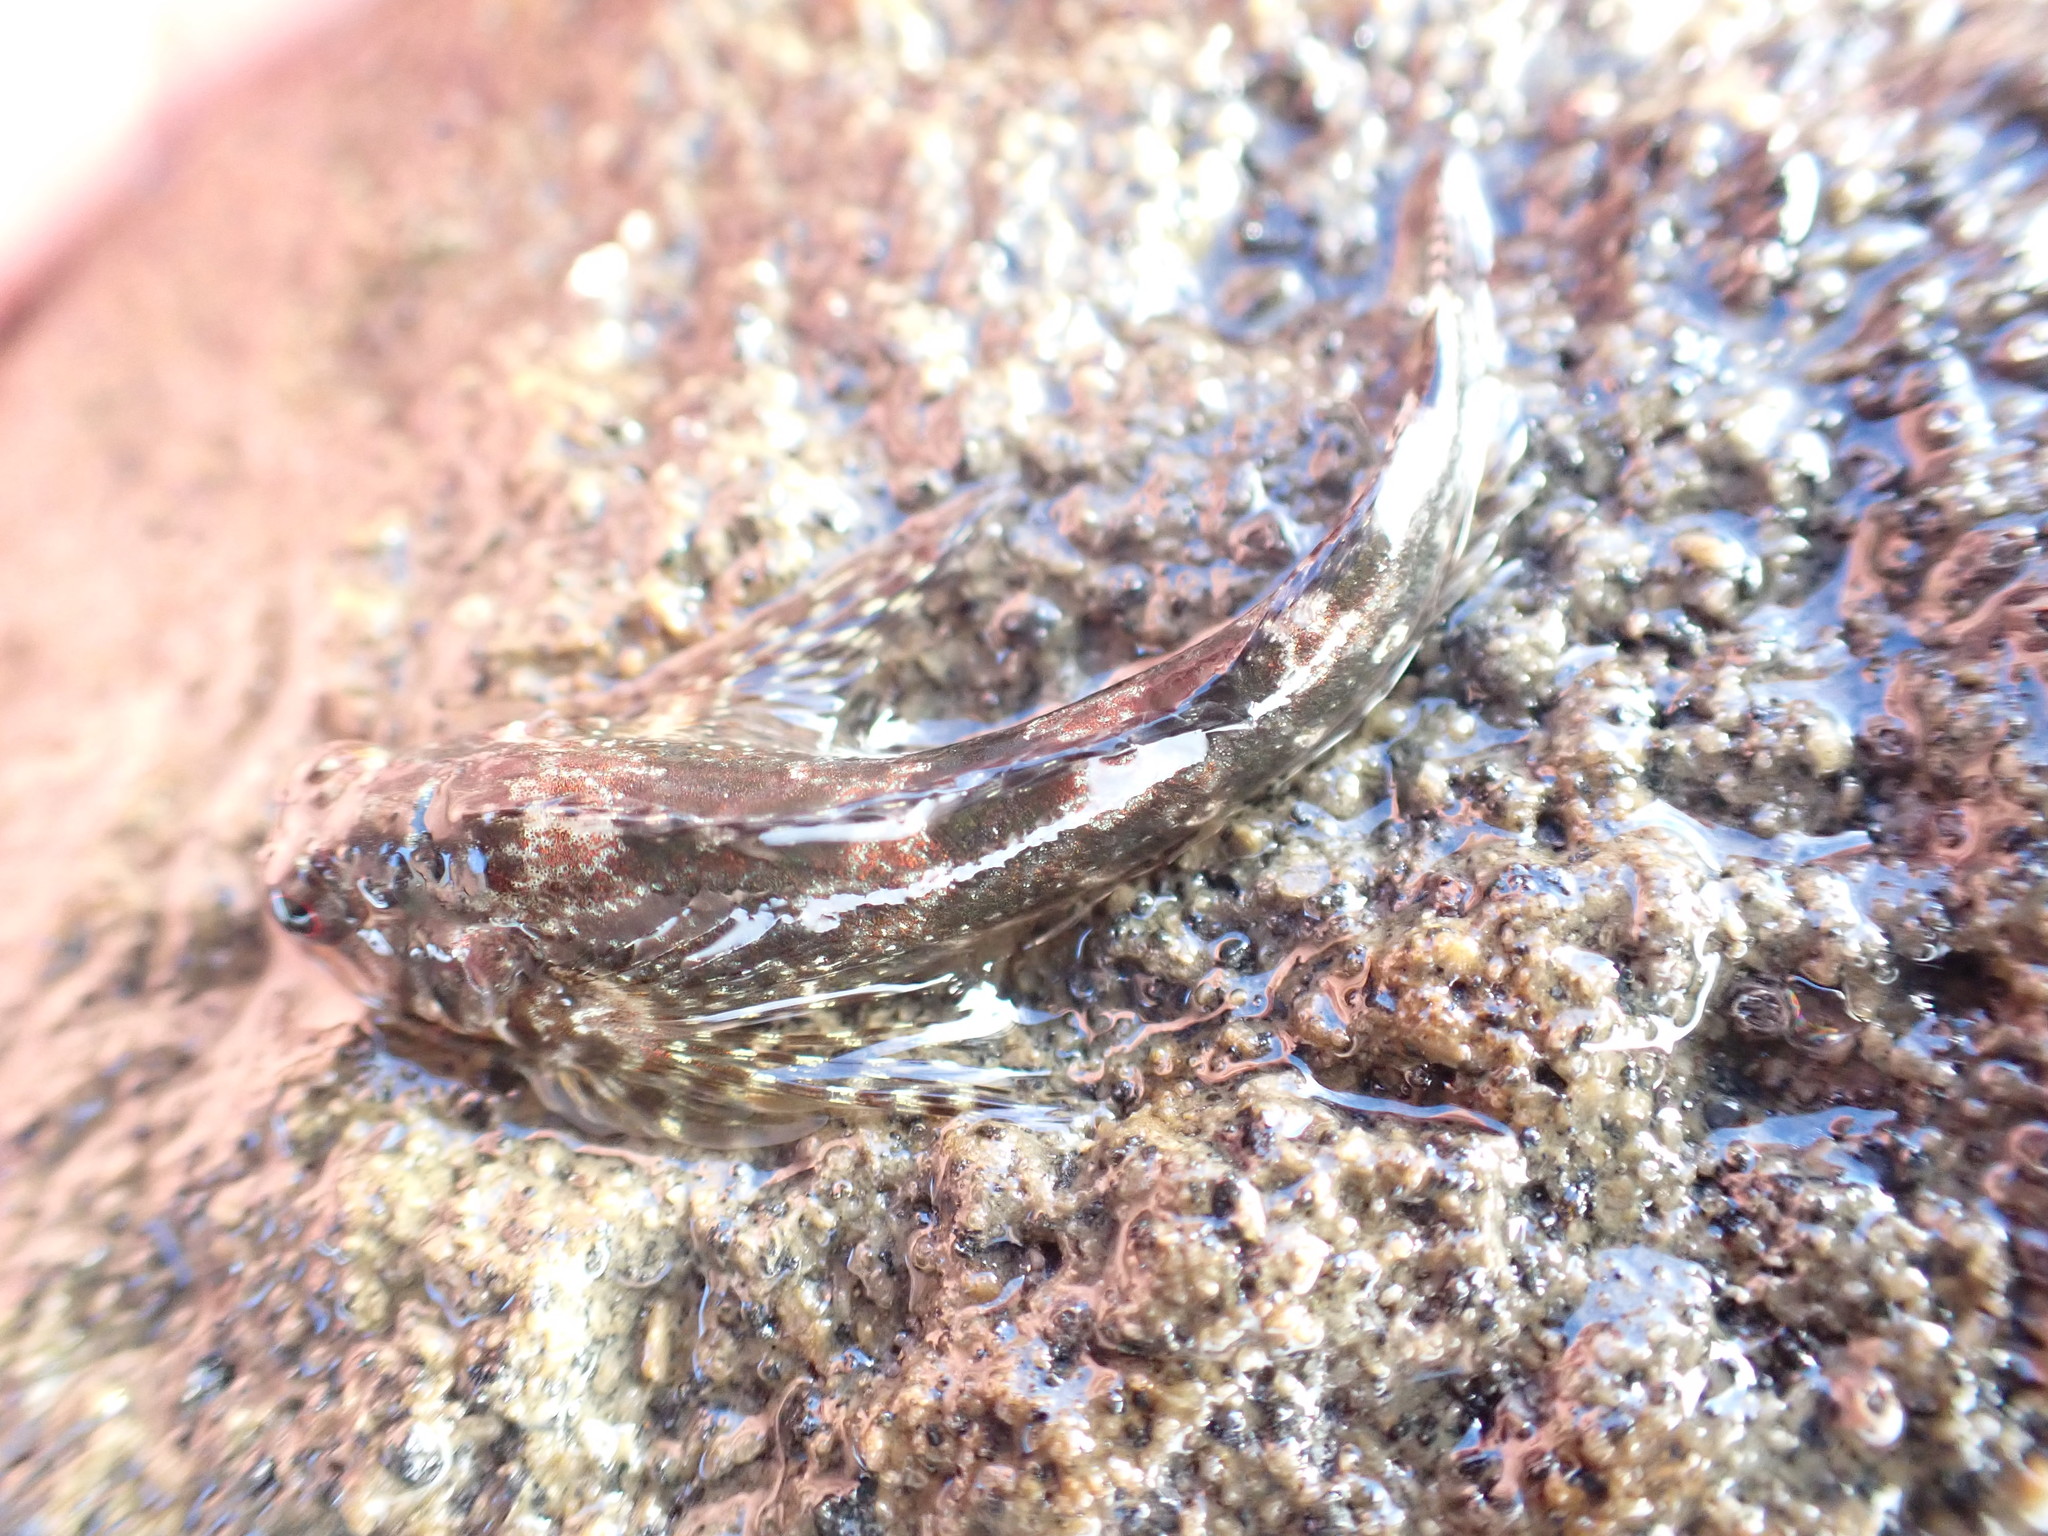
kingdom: Animalia
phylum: Chordata
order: Perciformes
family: Tripterygiidae
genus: Bellapiscis
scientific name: Bellapiscis lesleyae
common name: Mottled twister
